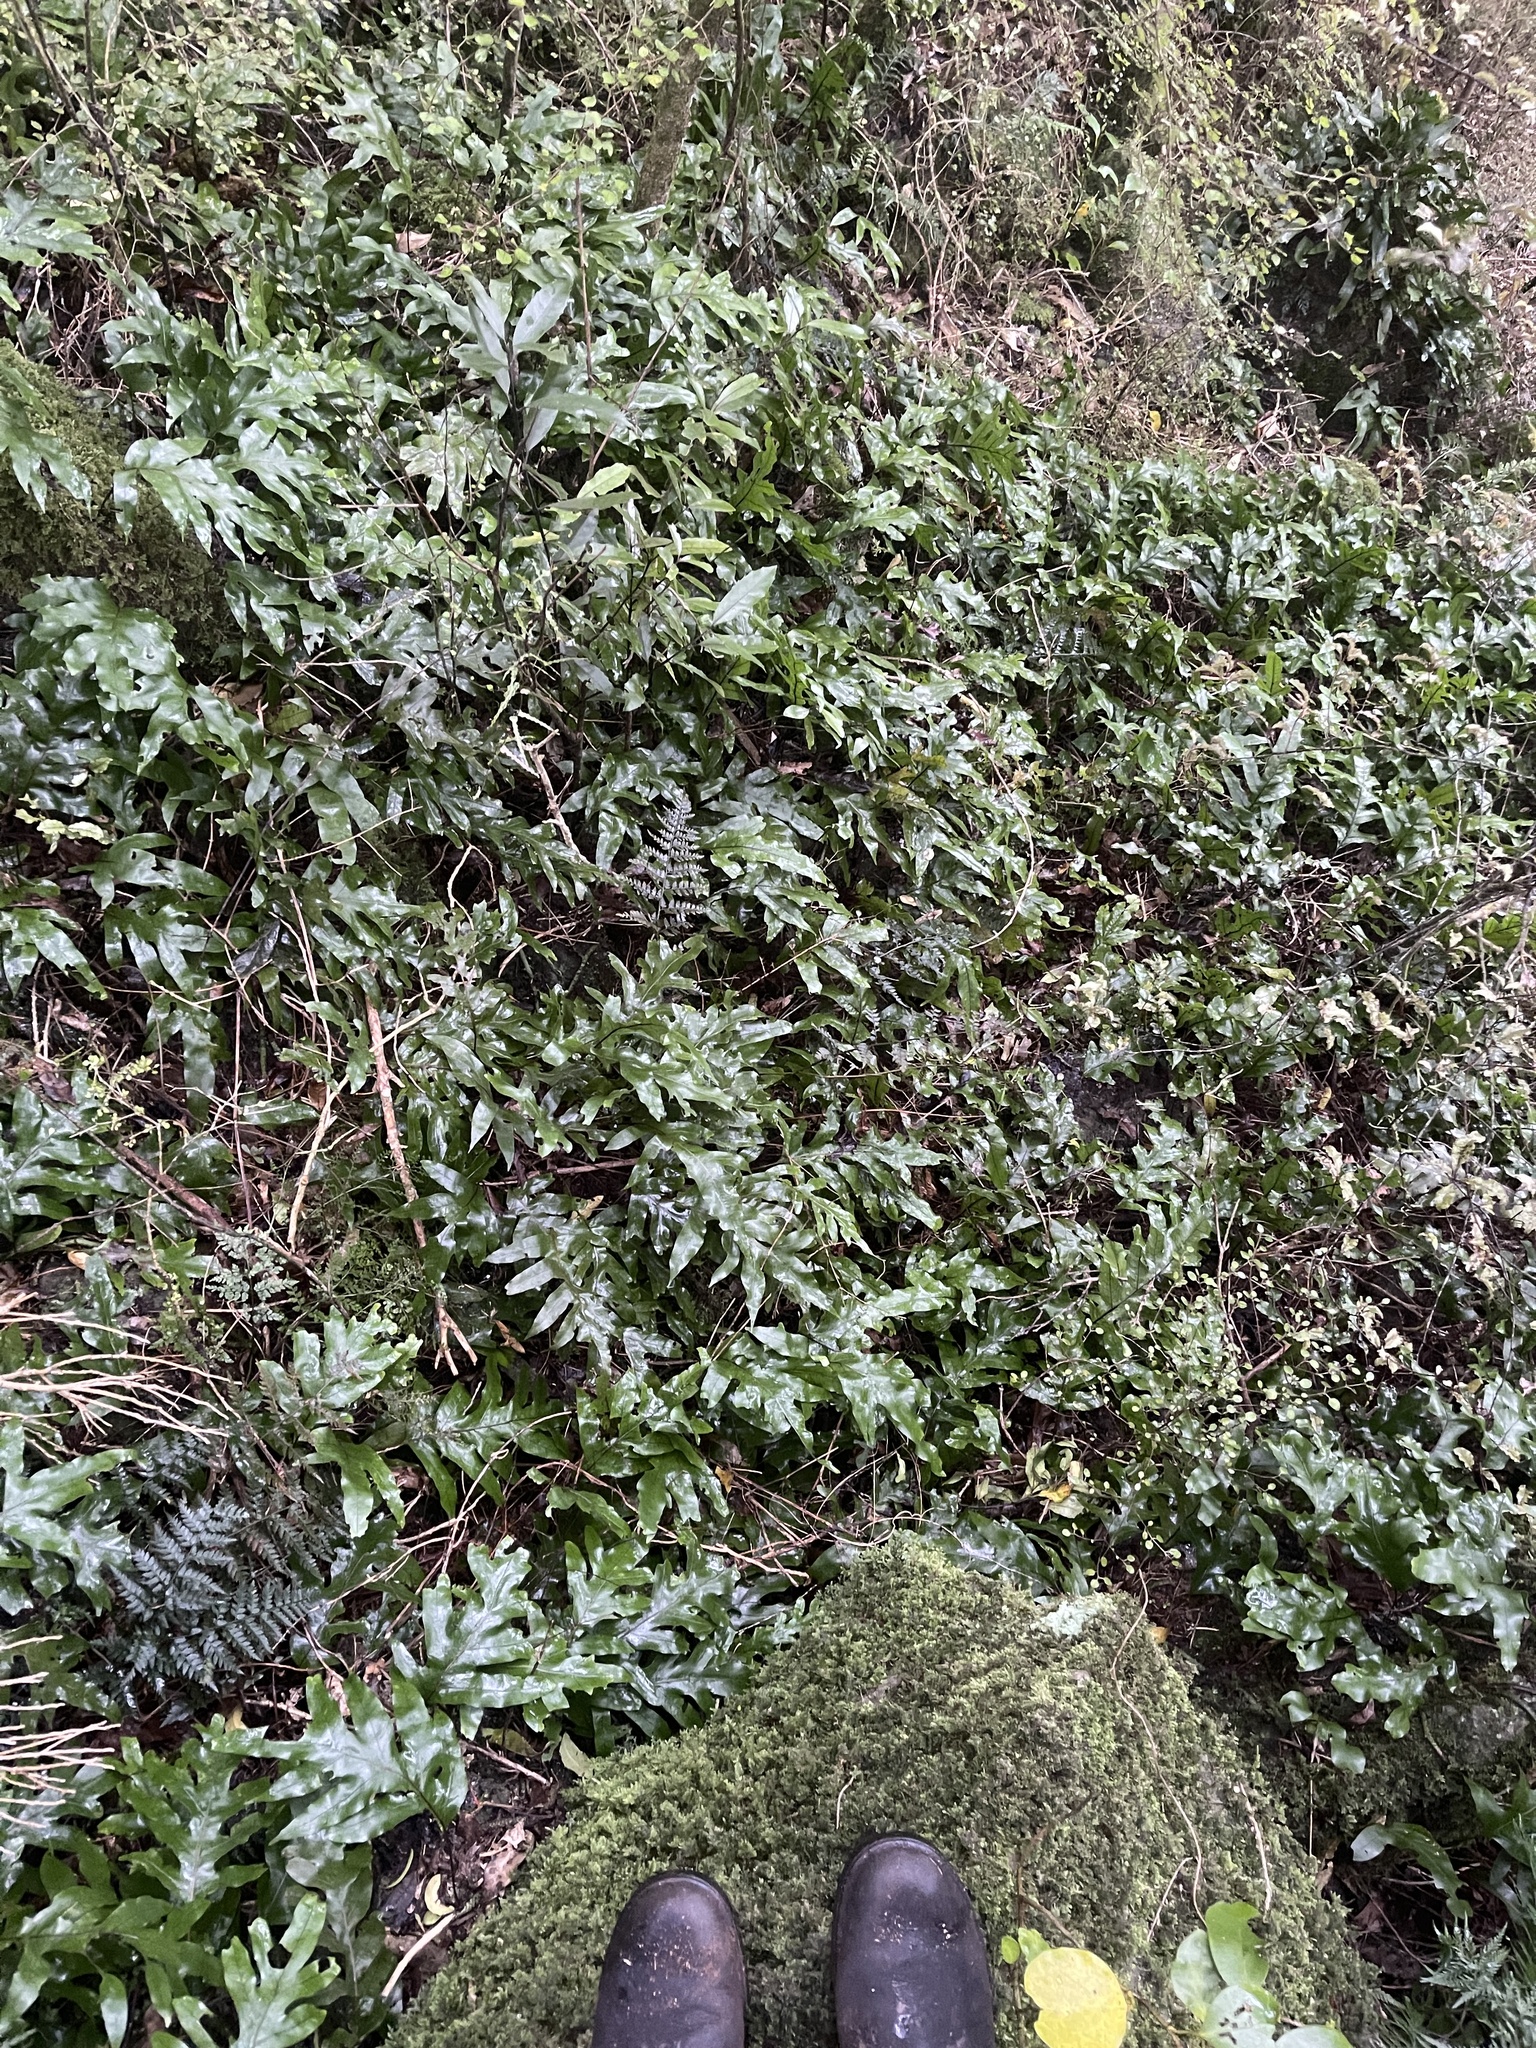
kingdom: Plantae
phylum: Tracheophyta
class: Polypodiopsida
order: Polypodiales
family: Polypodiaceae
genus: Lecanopteris
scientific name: Lecanopteris pustulata
